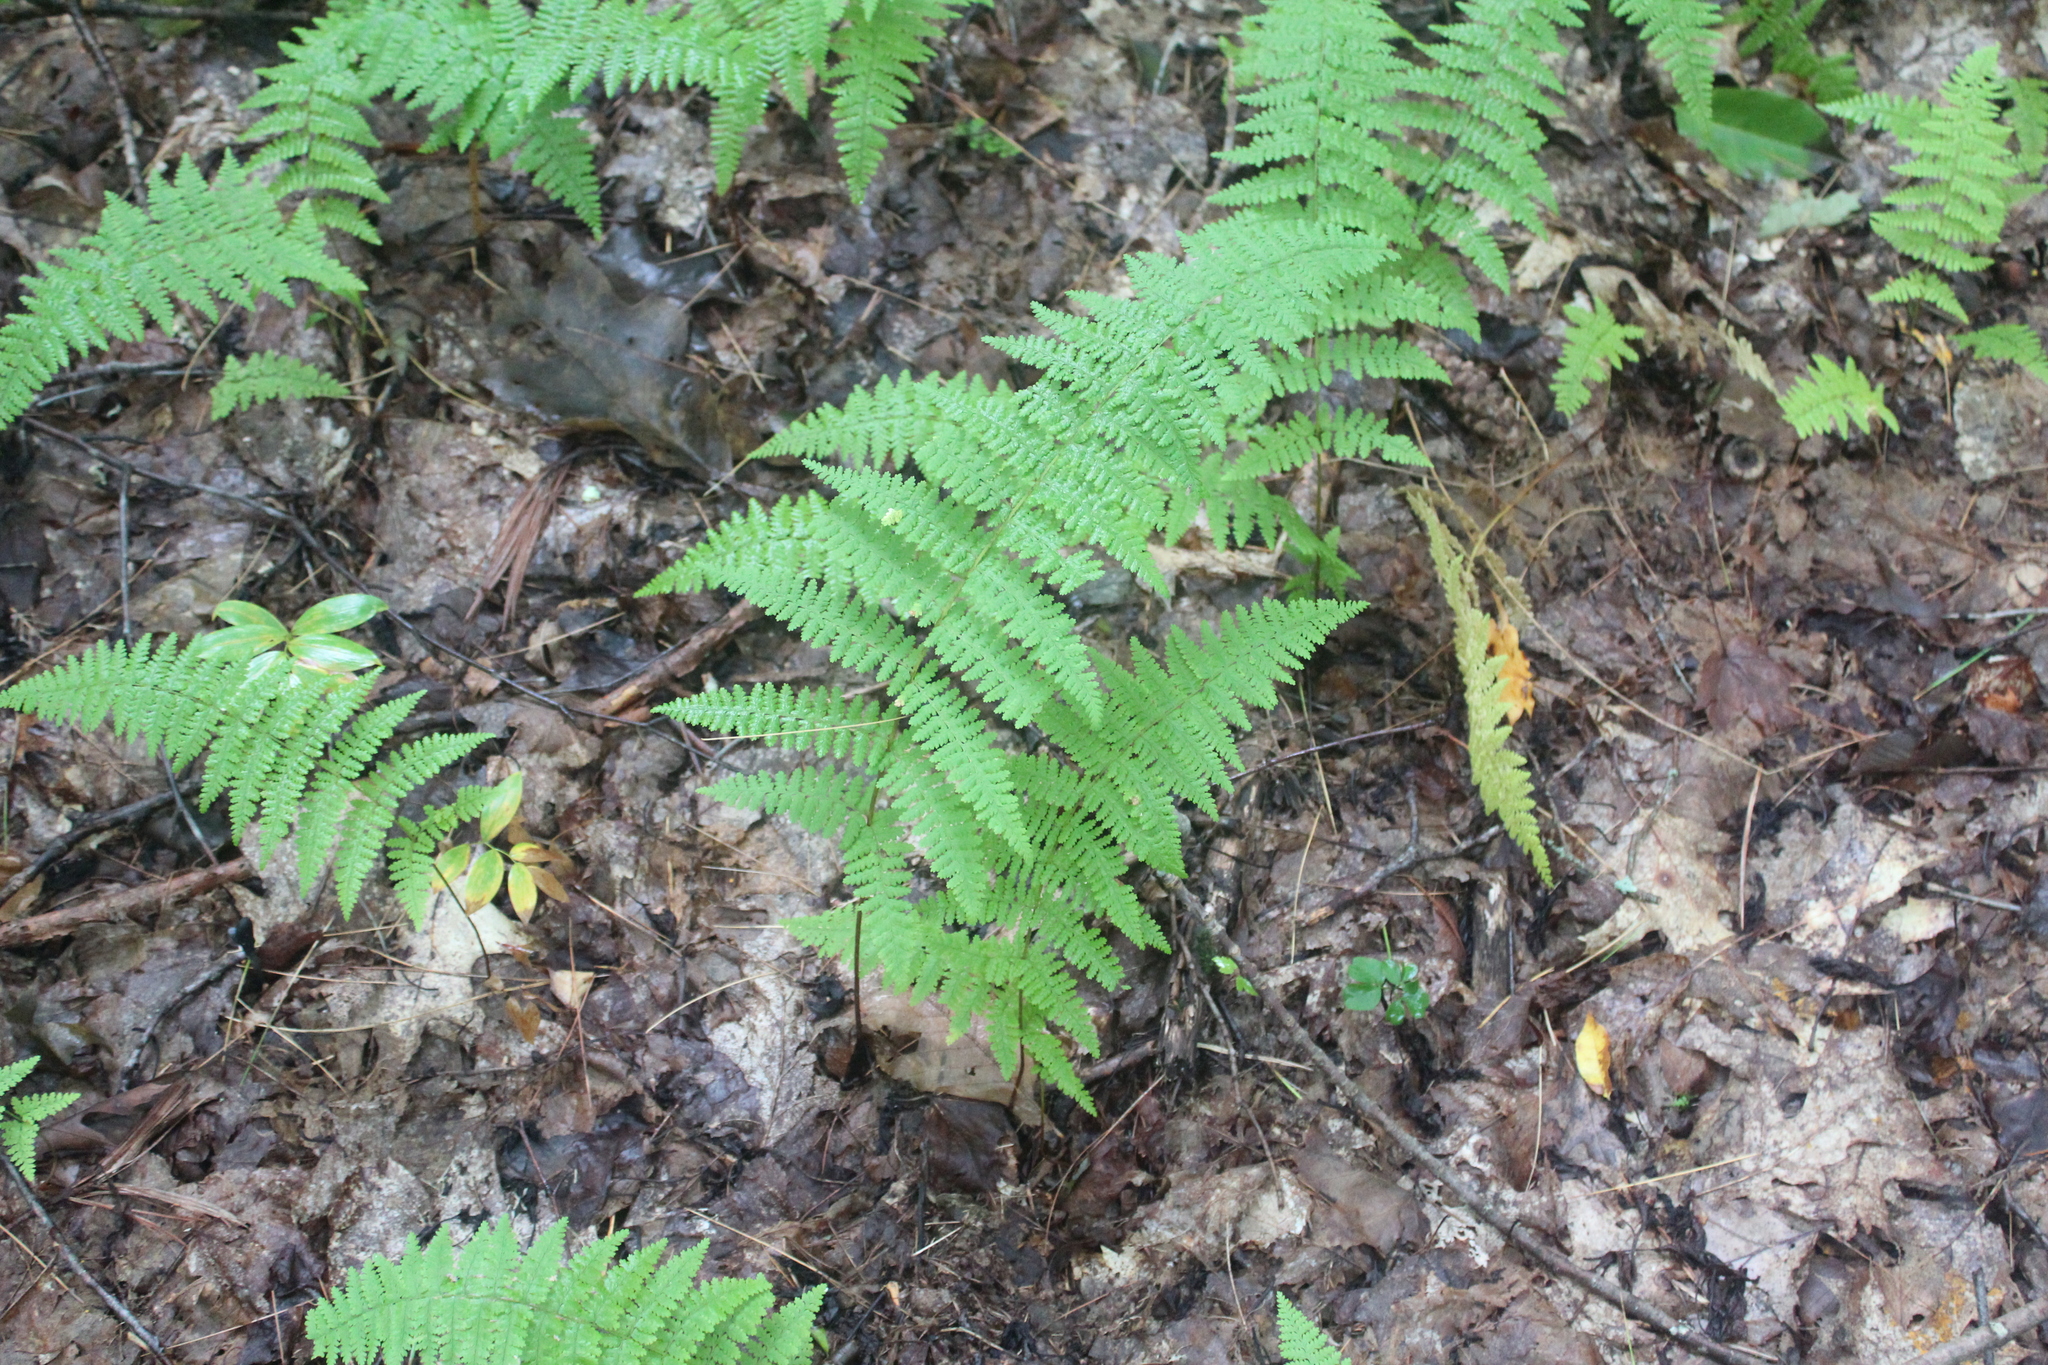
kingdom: Plantae
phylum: Tracheophyta
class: Polypodiopsida
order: Polypodiales
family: Dennstaedtiaceae
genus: Sitobolium
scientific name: Sitobolium punctilobum
